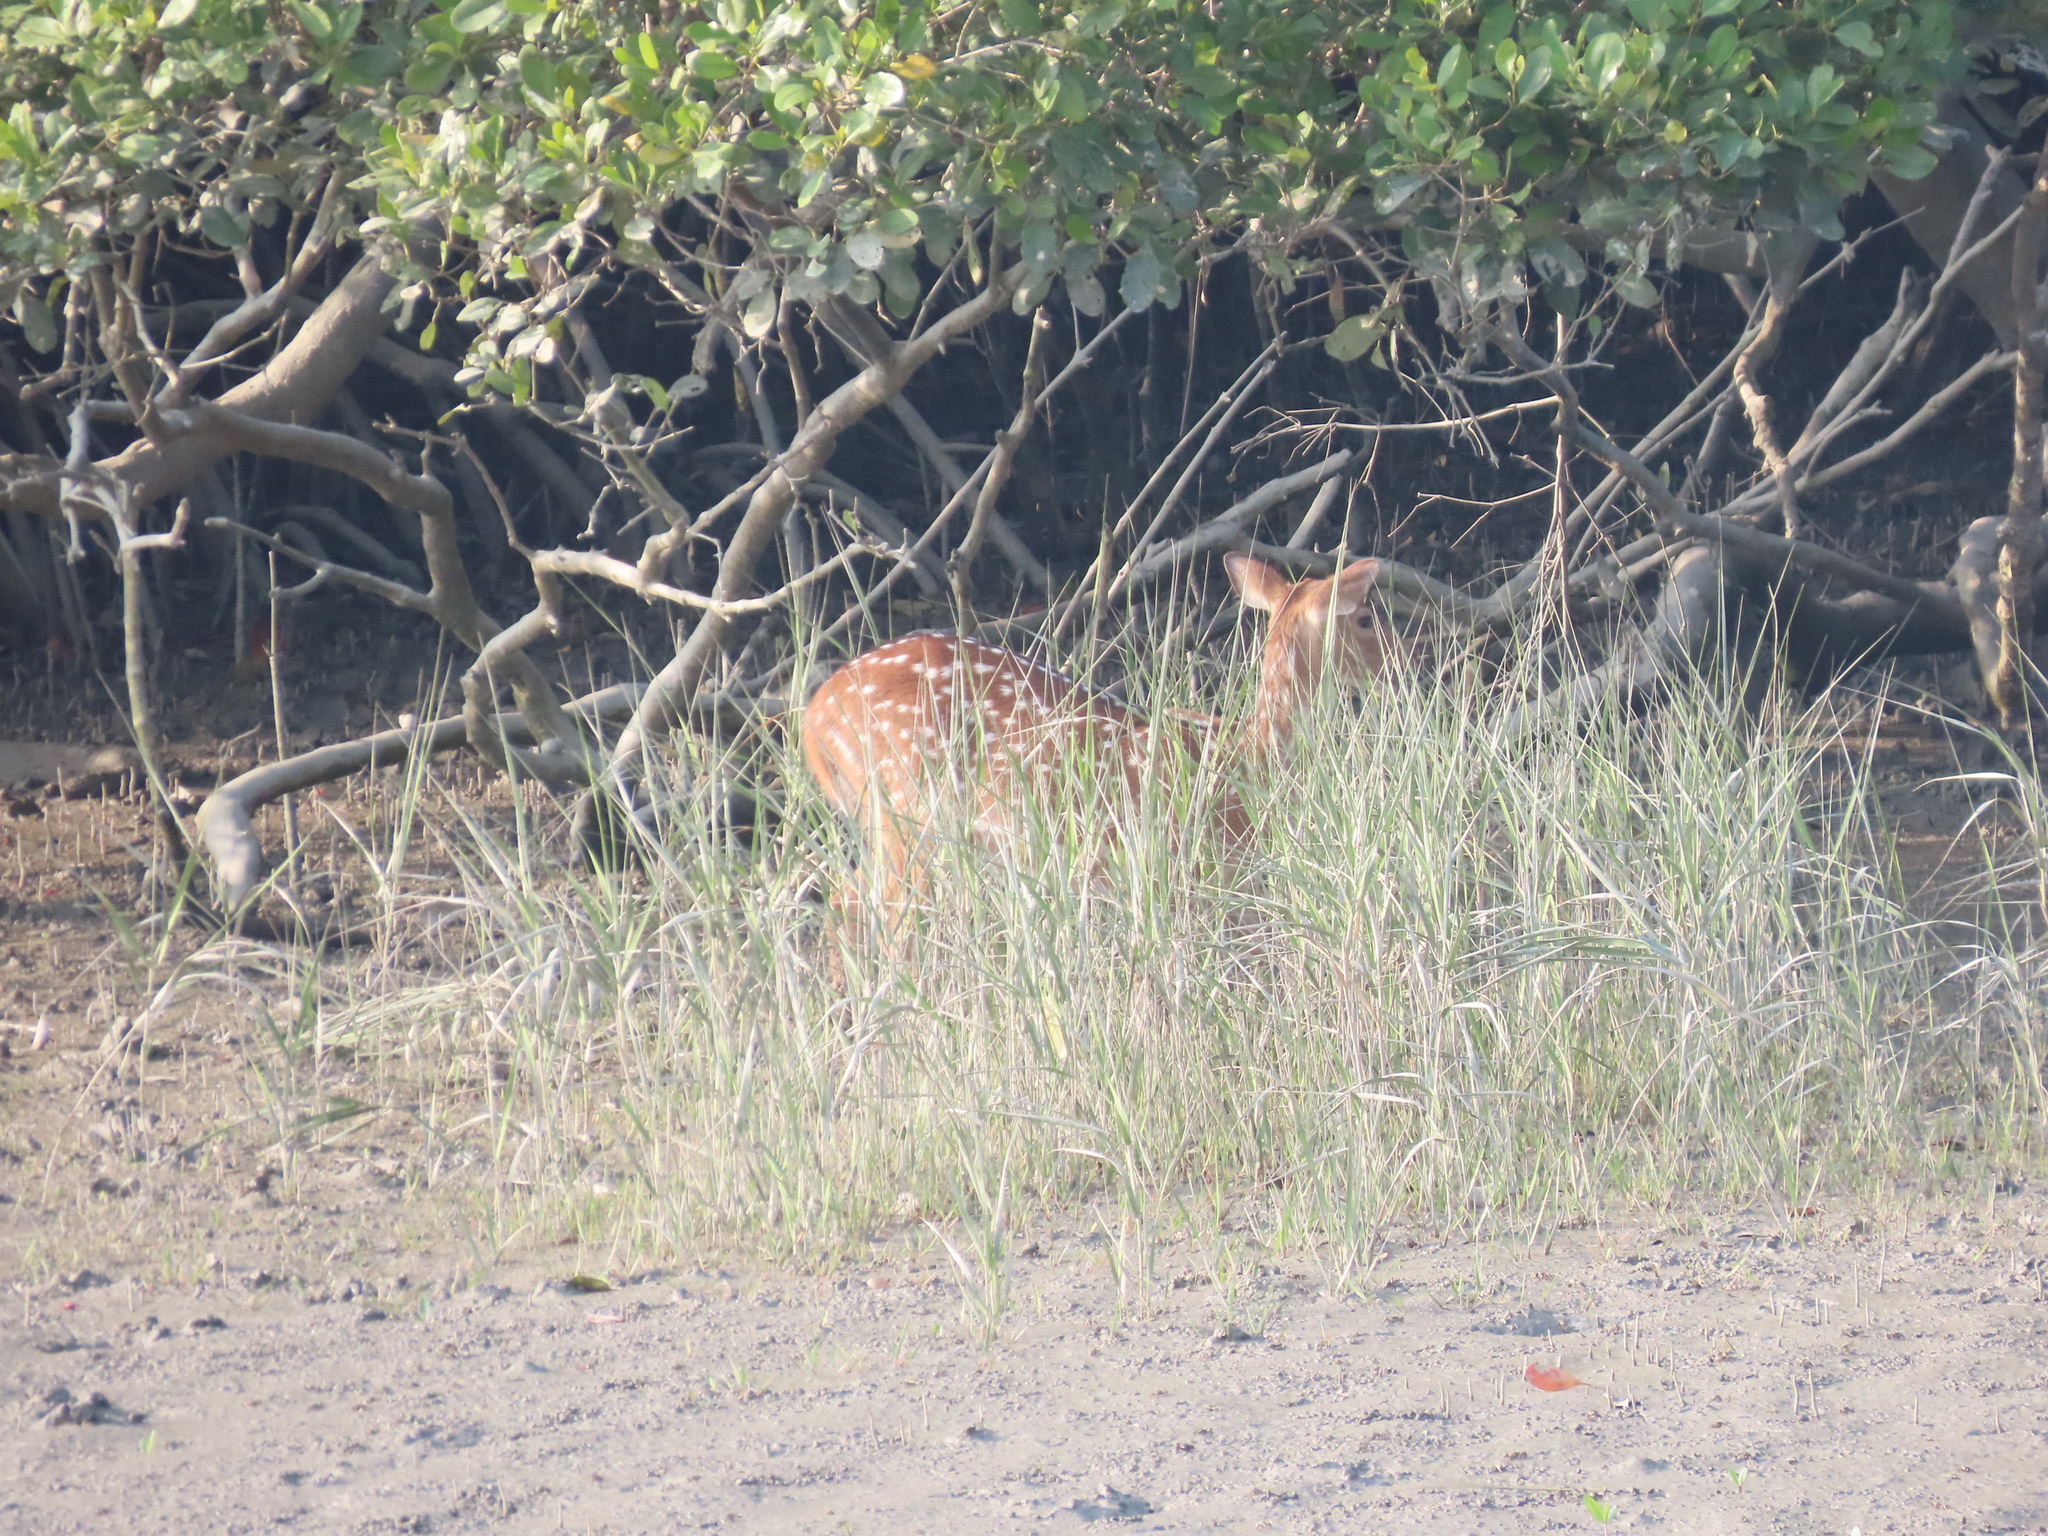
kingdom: Animalia
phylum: Chordata
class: Mammalia
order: Artiodactyla
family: Cervidae
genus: Axis
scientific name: Axis axis
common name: Chital
